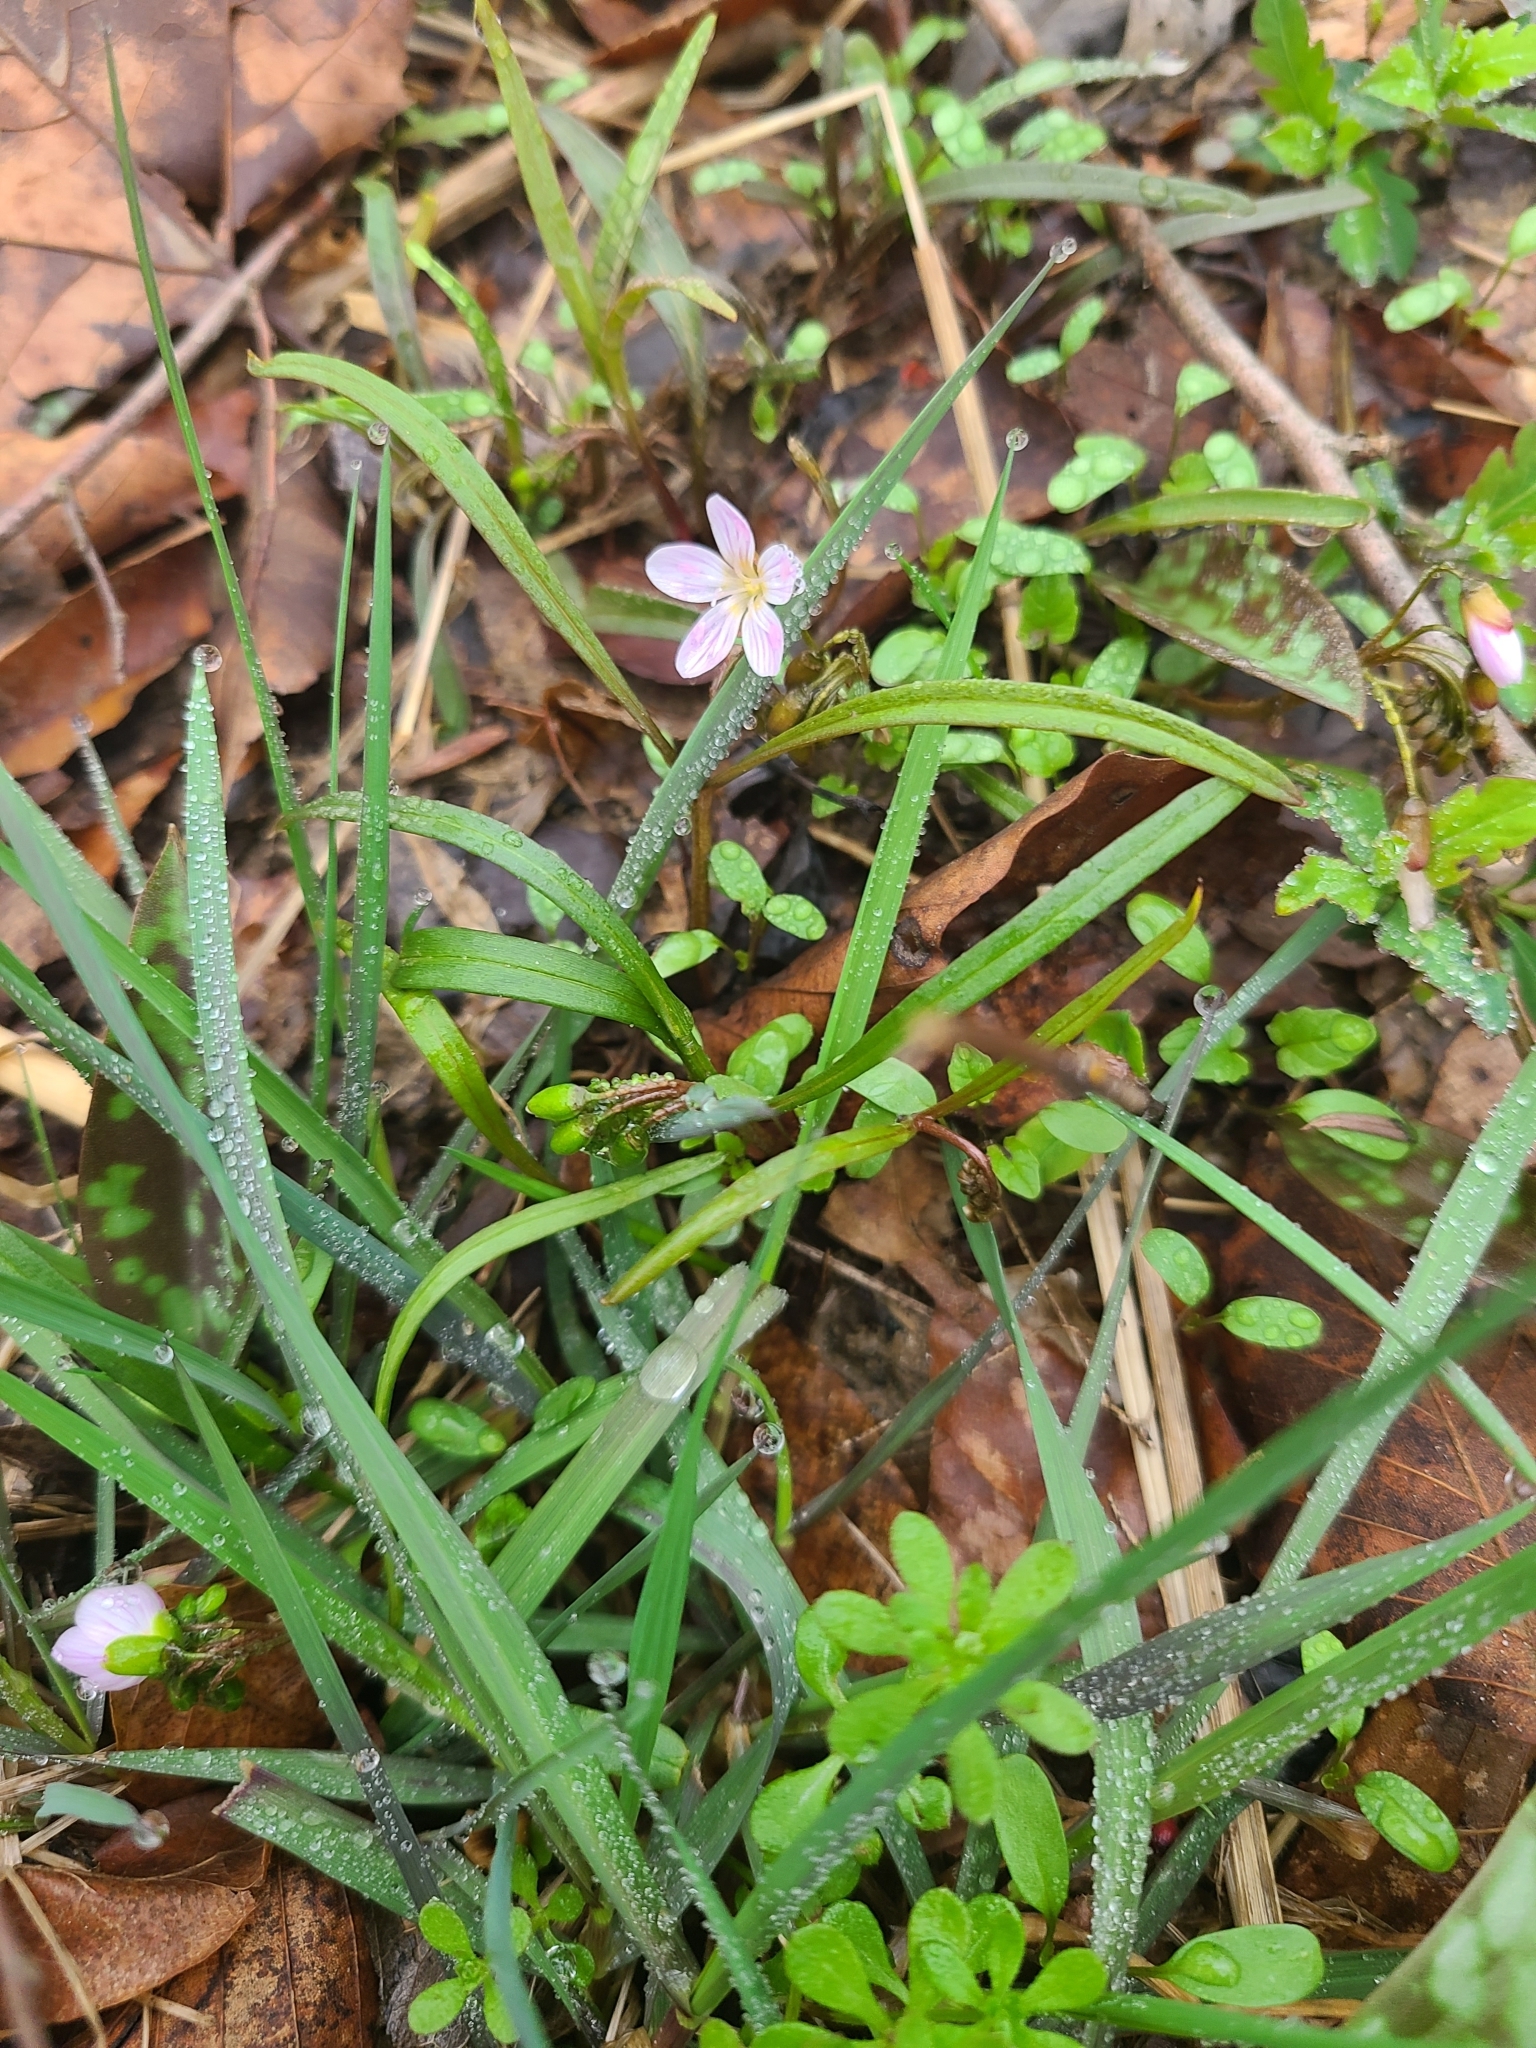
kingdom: Plantae
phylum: Tracheophyta
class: Magnoliopsida
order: Caryophyllales
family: Montiaceae
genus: Claytonia
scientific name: Claytonia virginica
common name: Virginia springbeauty
